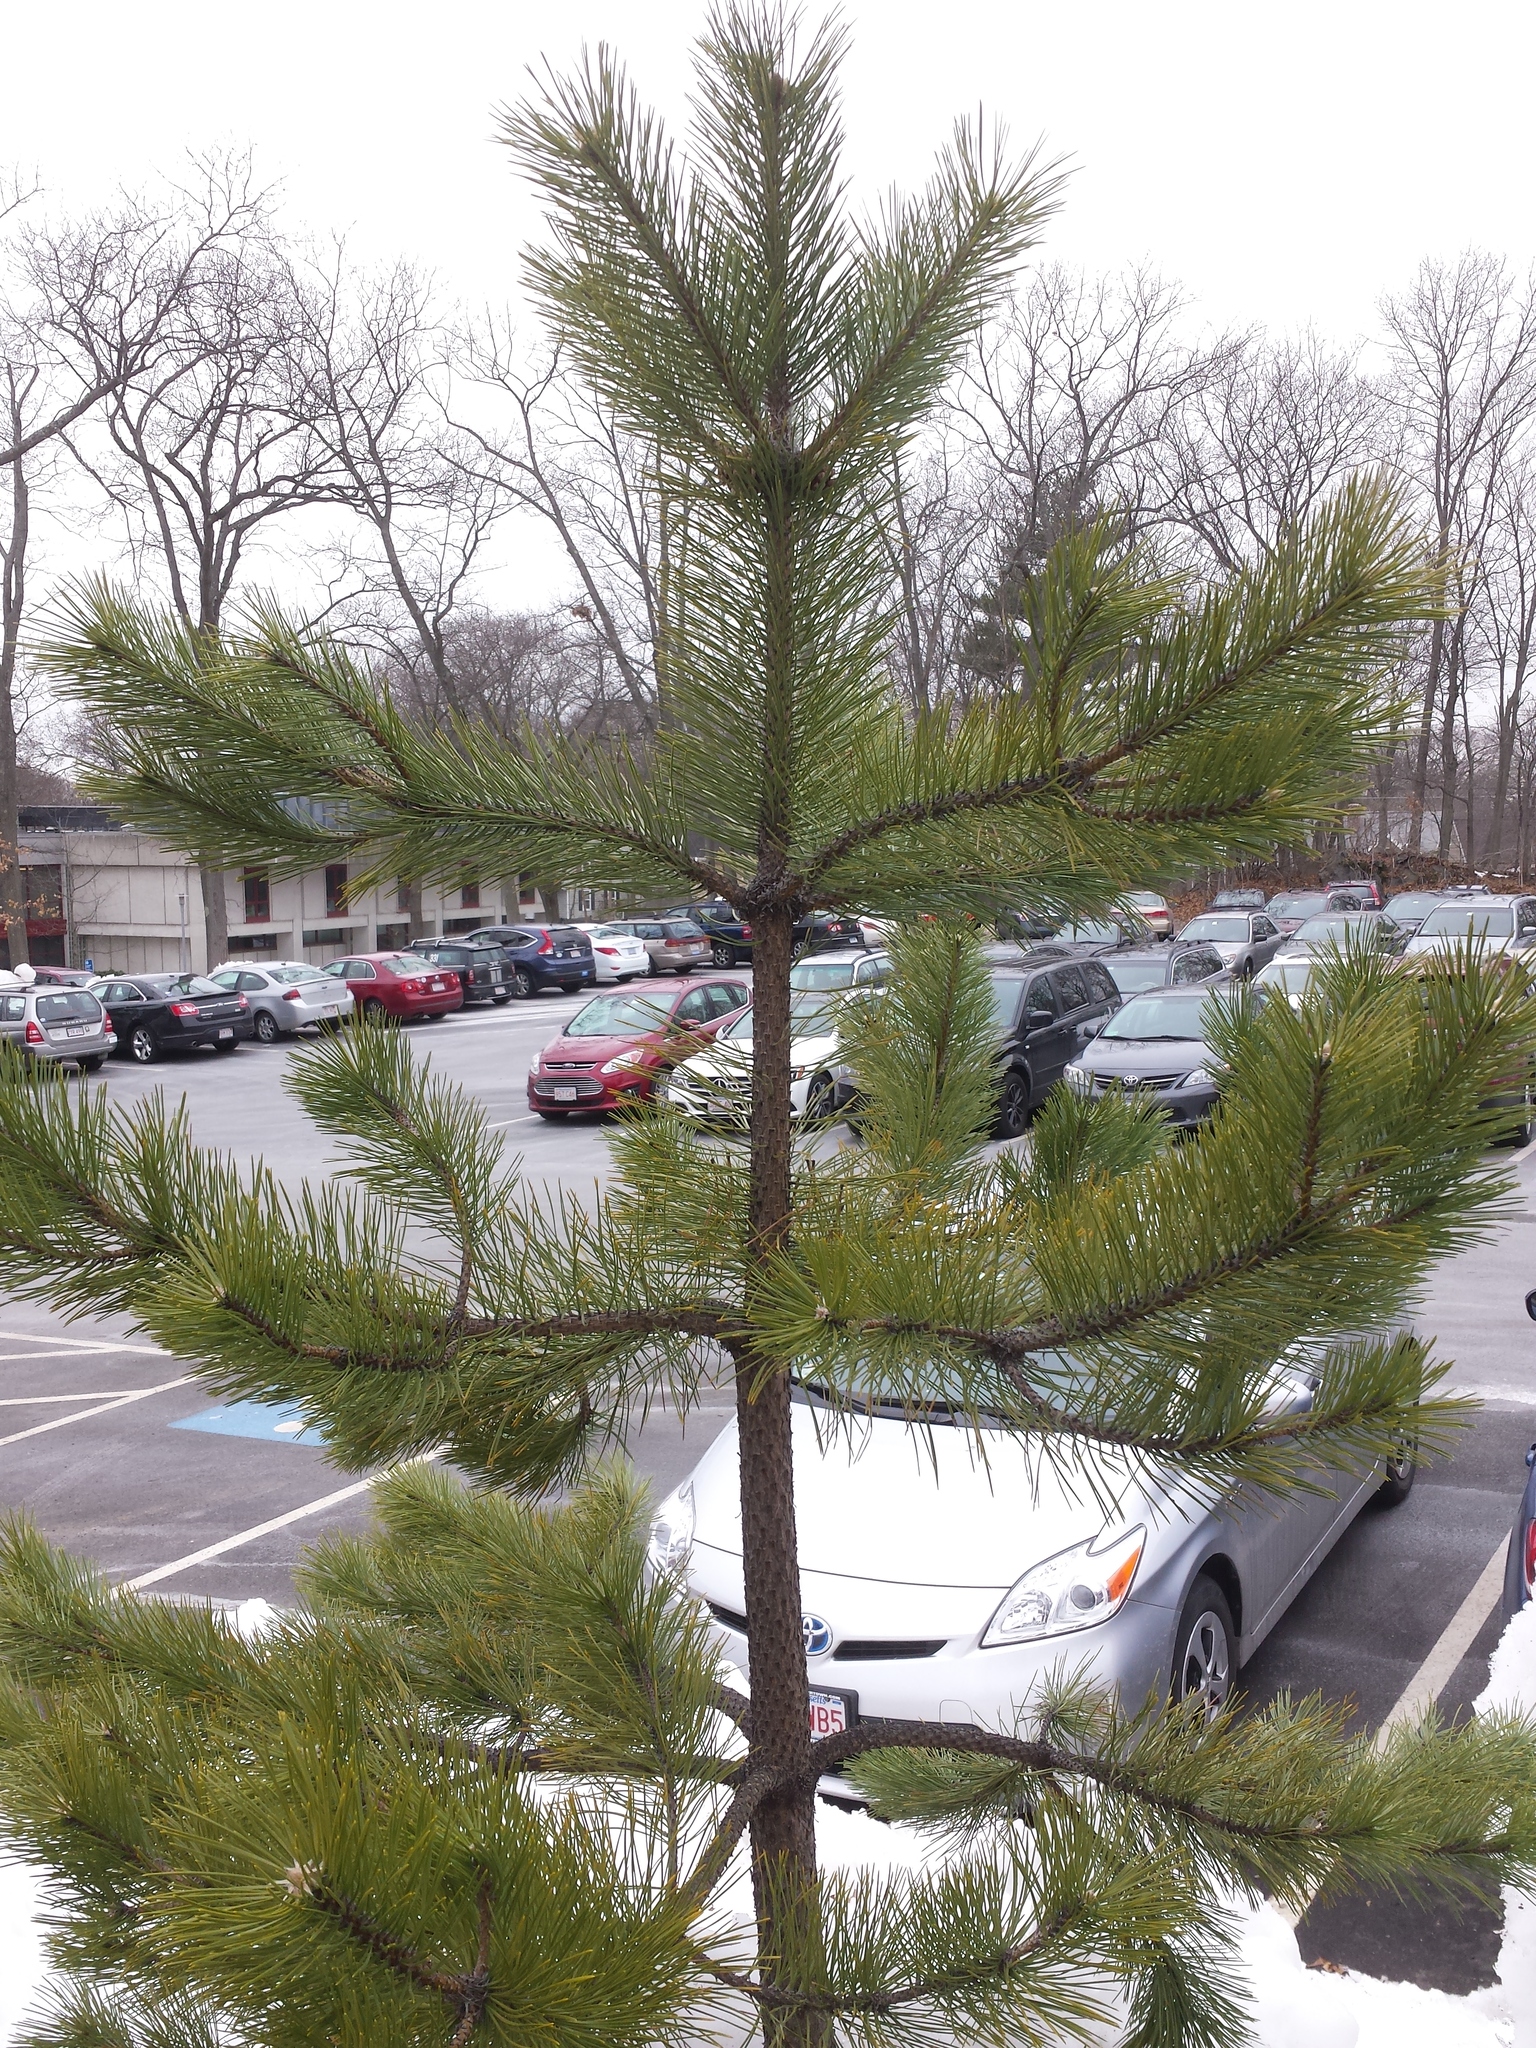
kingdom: Plantae
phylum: Tracheophyta
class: Pinopsida
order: Pinales
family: Pinaceae
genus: Pinus
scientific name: Pinus rigida
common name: Pitch pine
